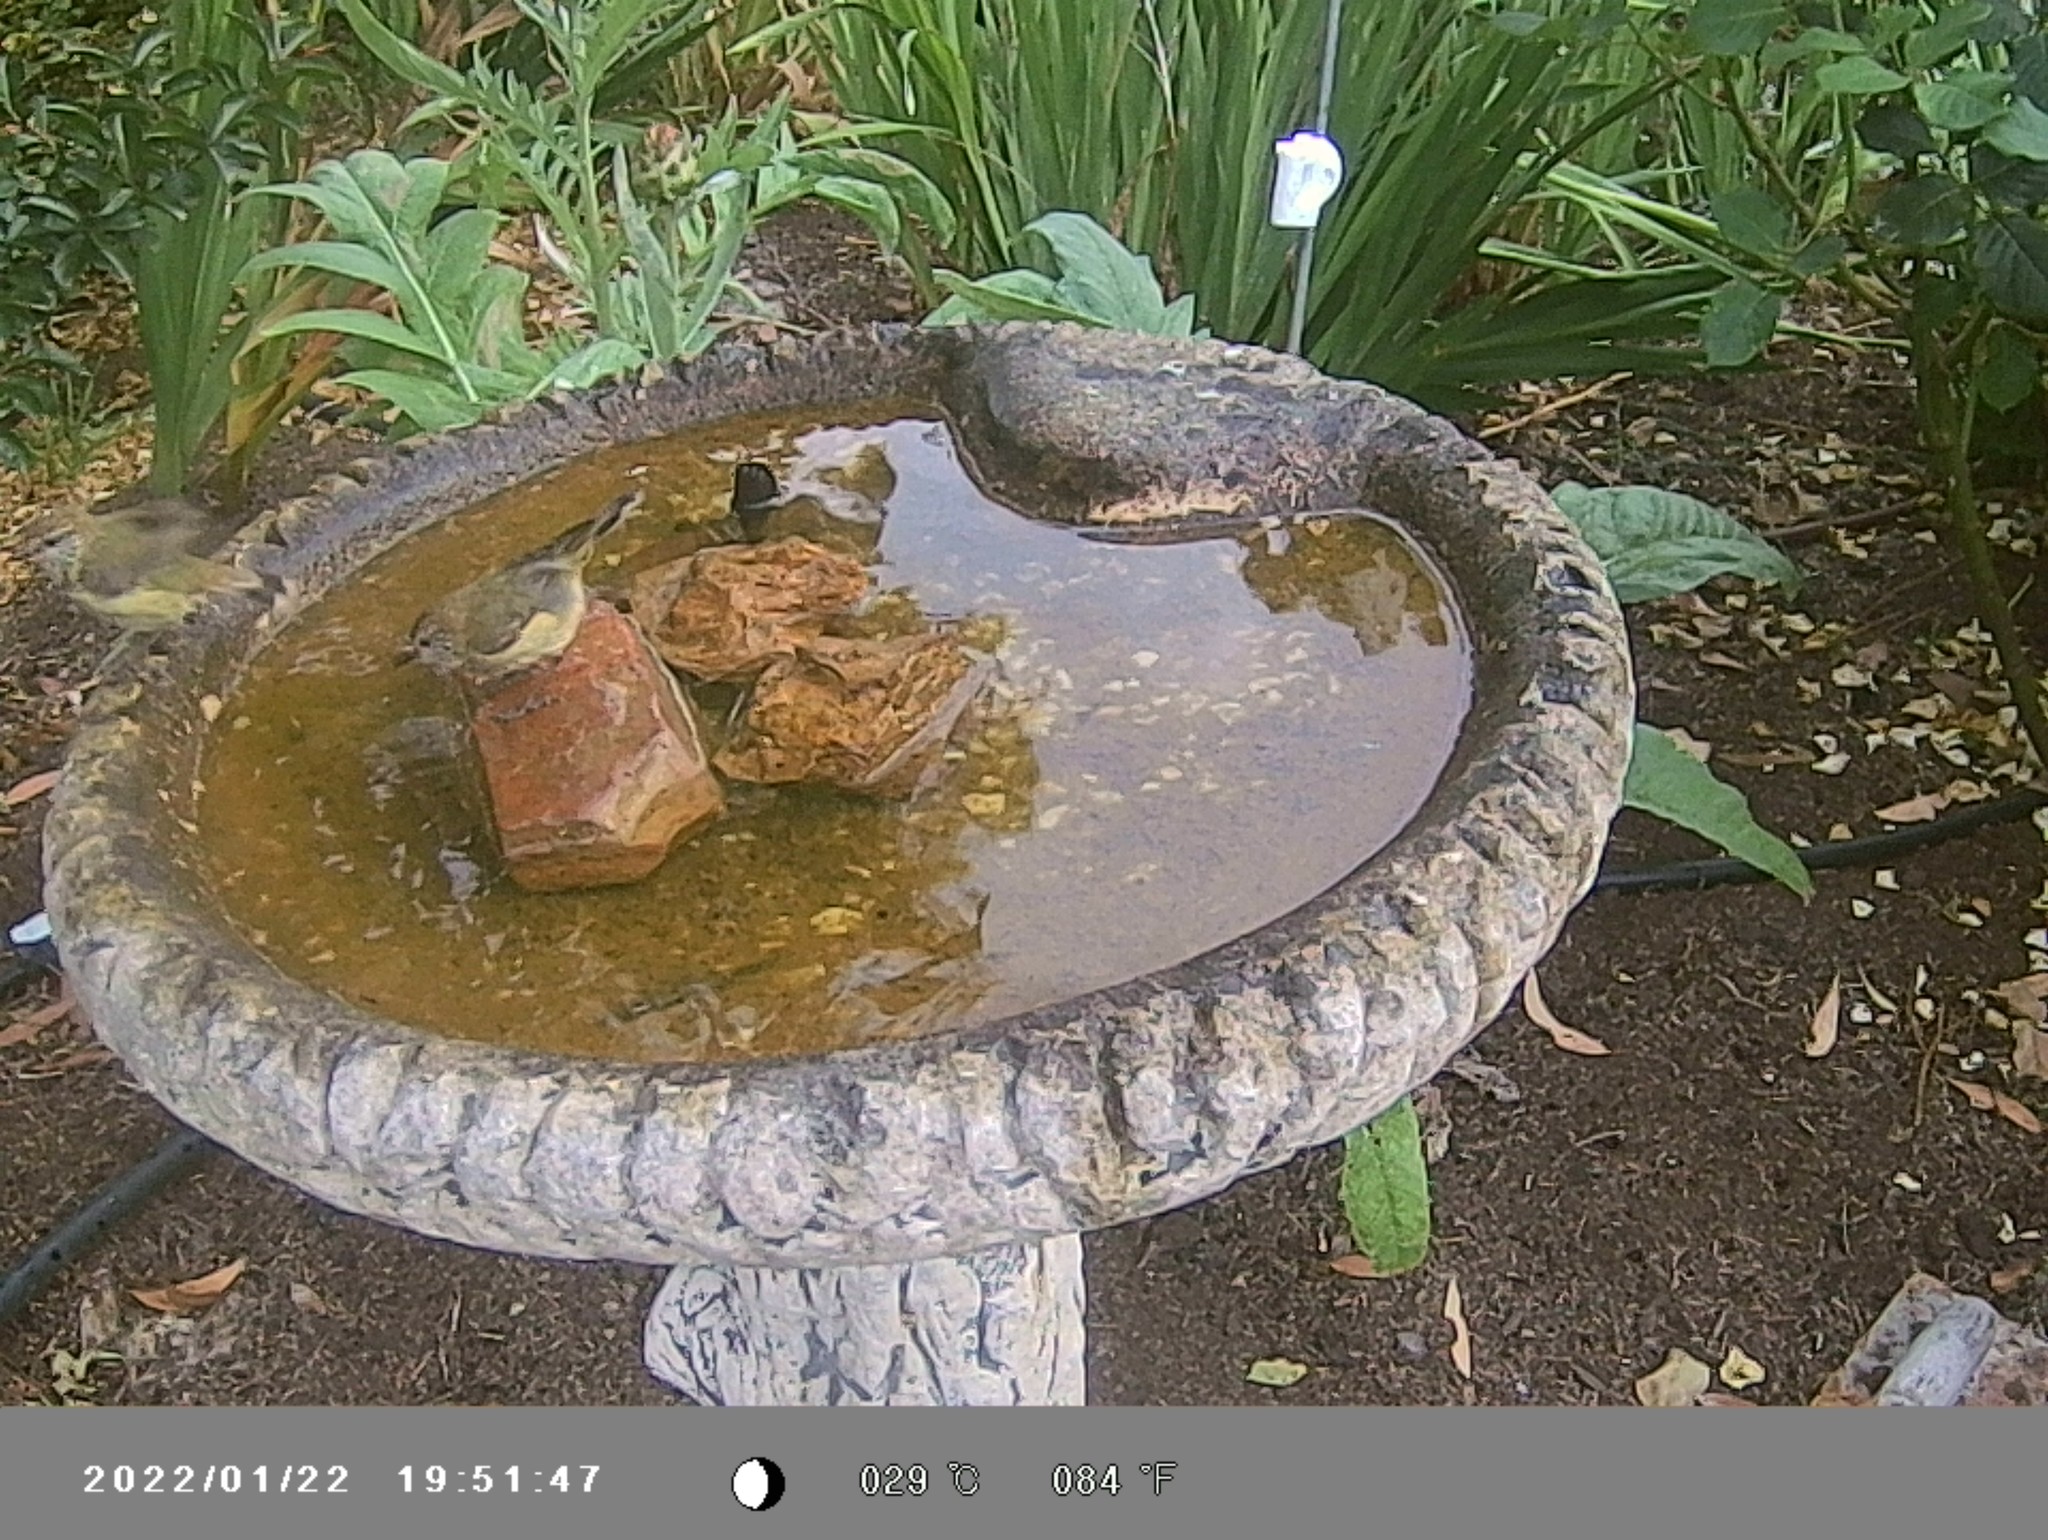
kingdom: Animalia
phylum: Chordata
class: Aves
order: Passeriformes
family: Acanthizidae
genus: Acanthiza
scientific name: Acanthiza lineata
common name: Striated thornbill
